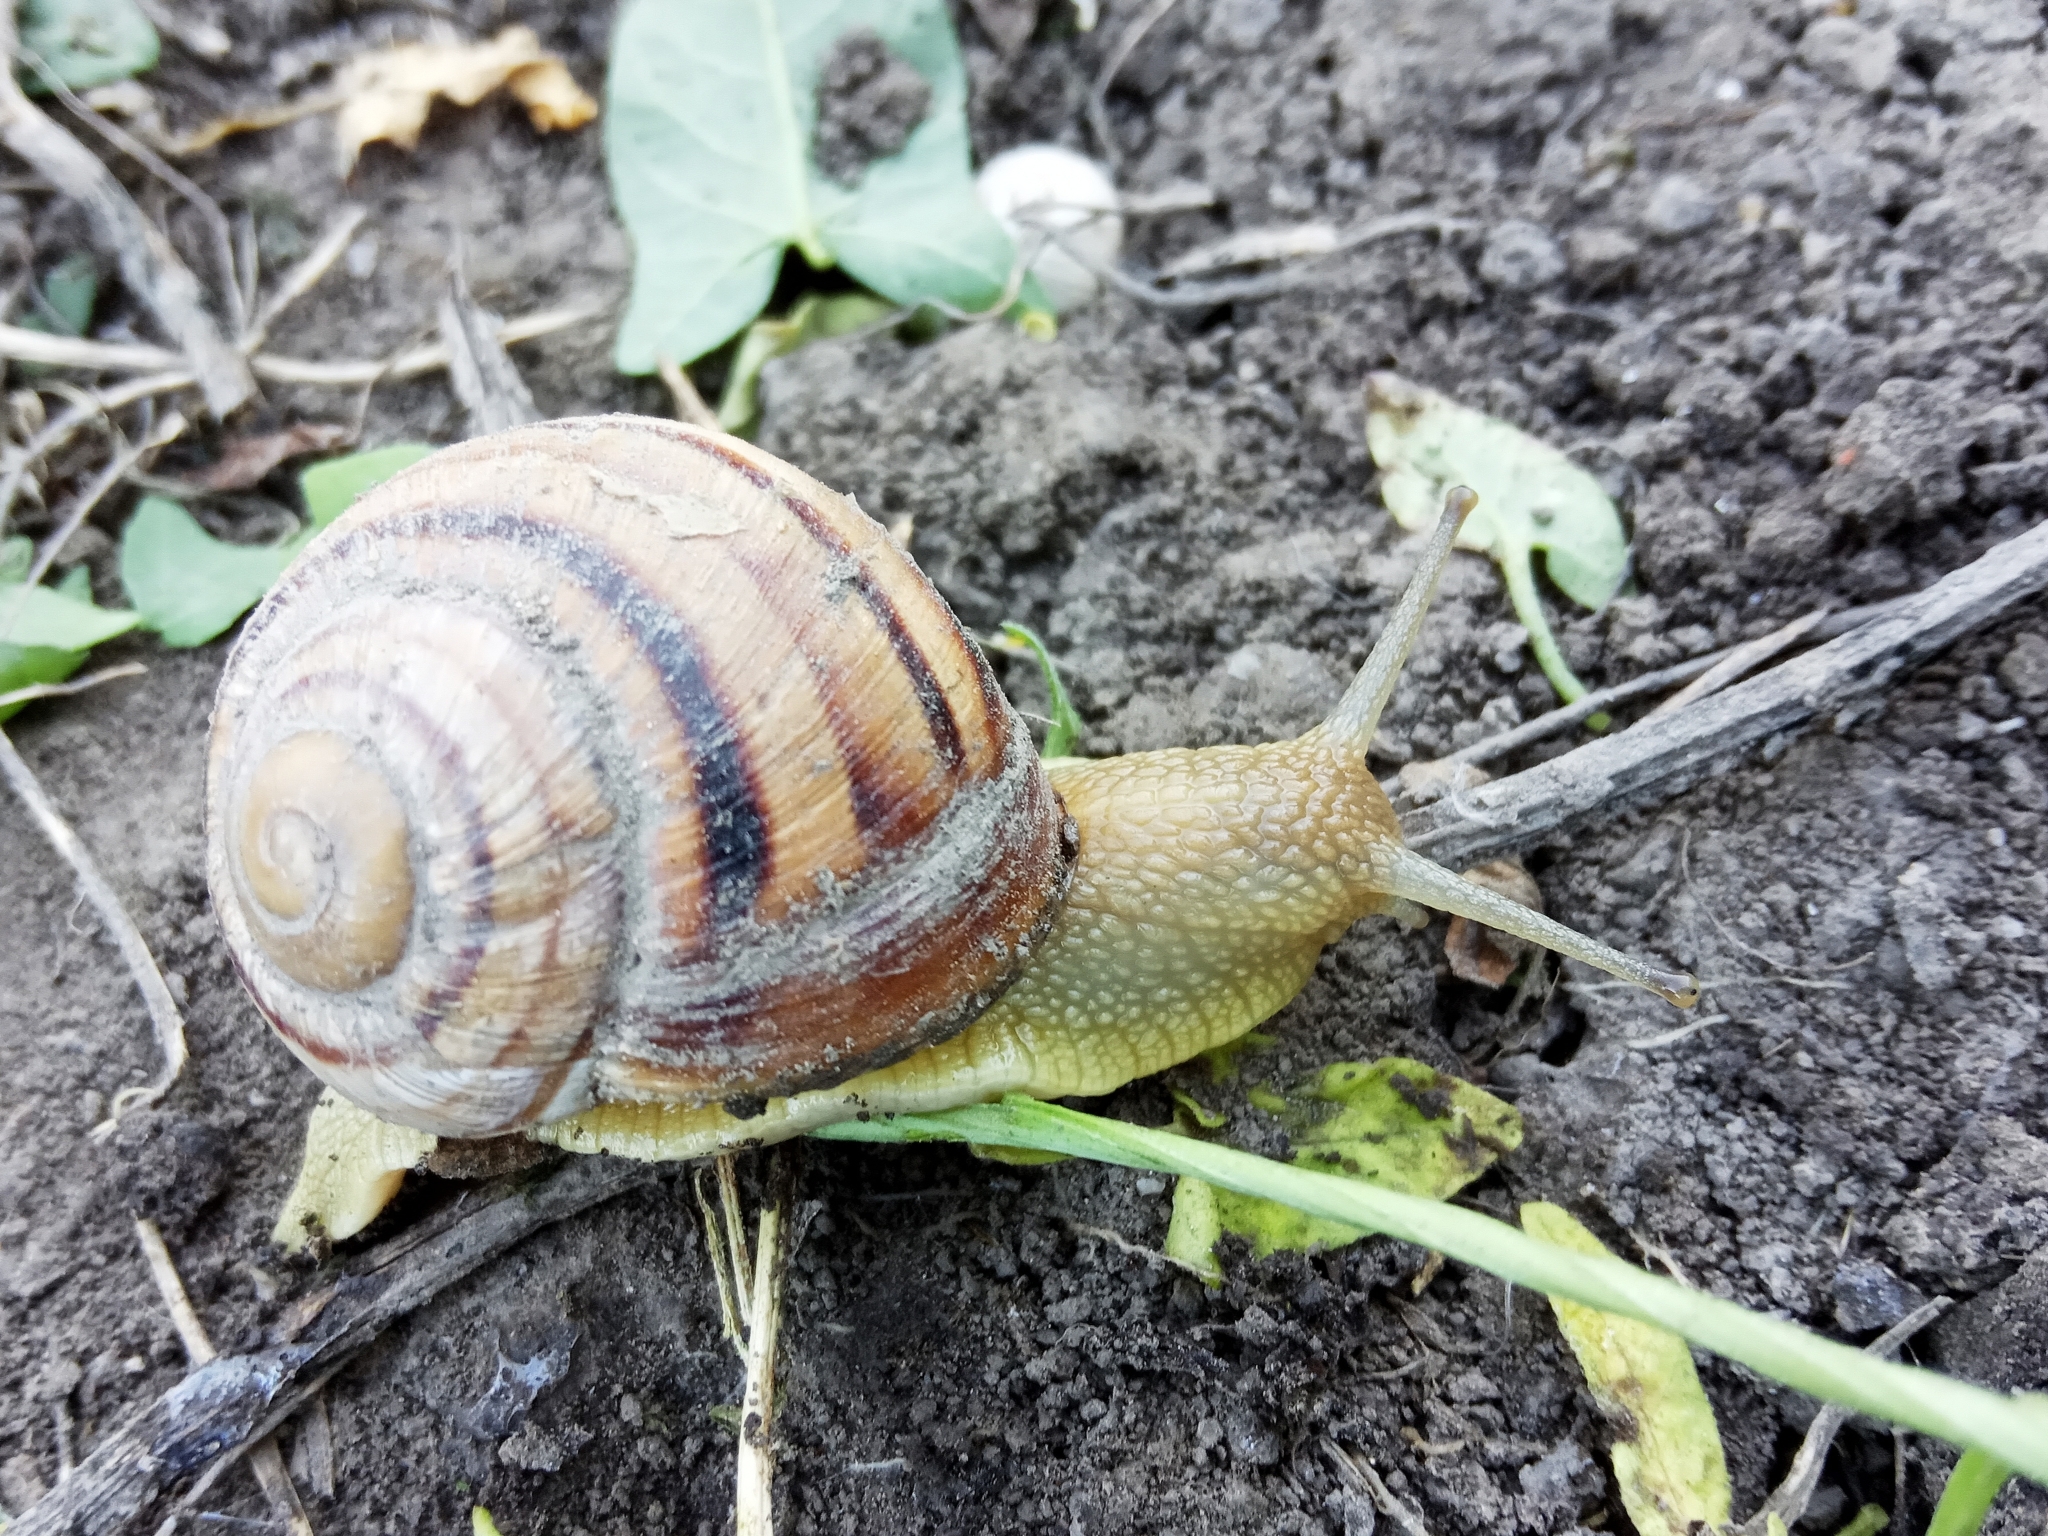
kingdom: Animalia
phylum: Mollusca
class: Gastropoda
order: Stylommatophora
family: Helicidae
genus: Helix
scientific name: Helix albescens
